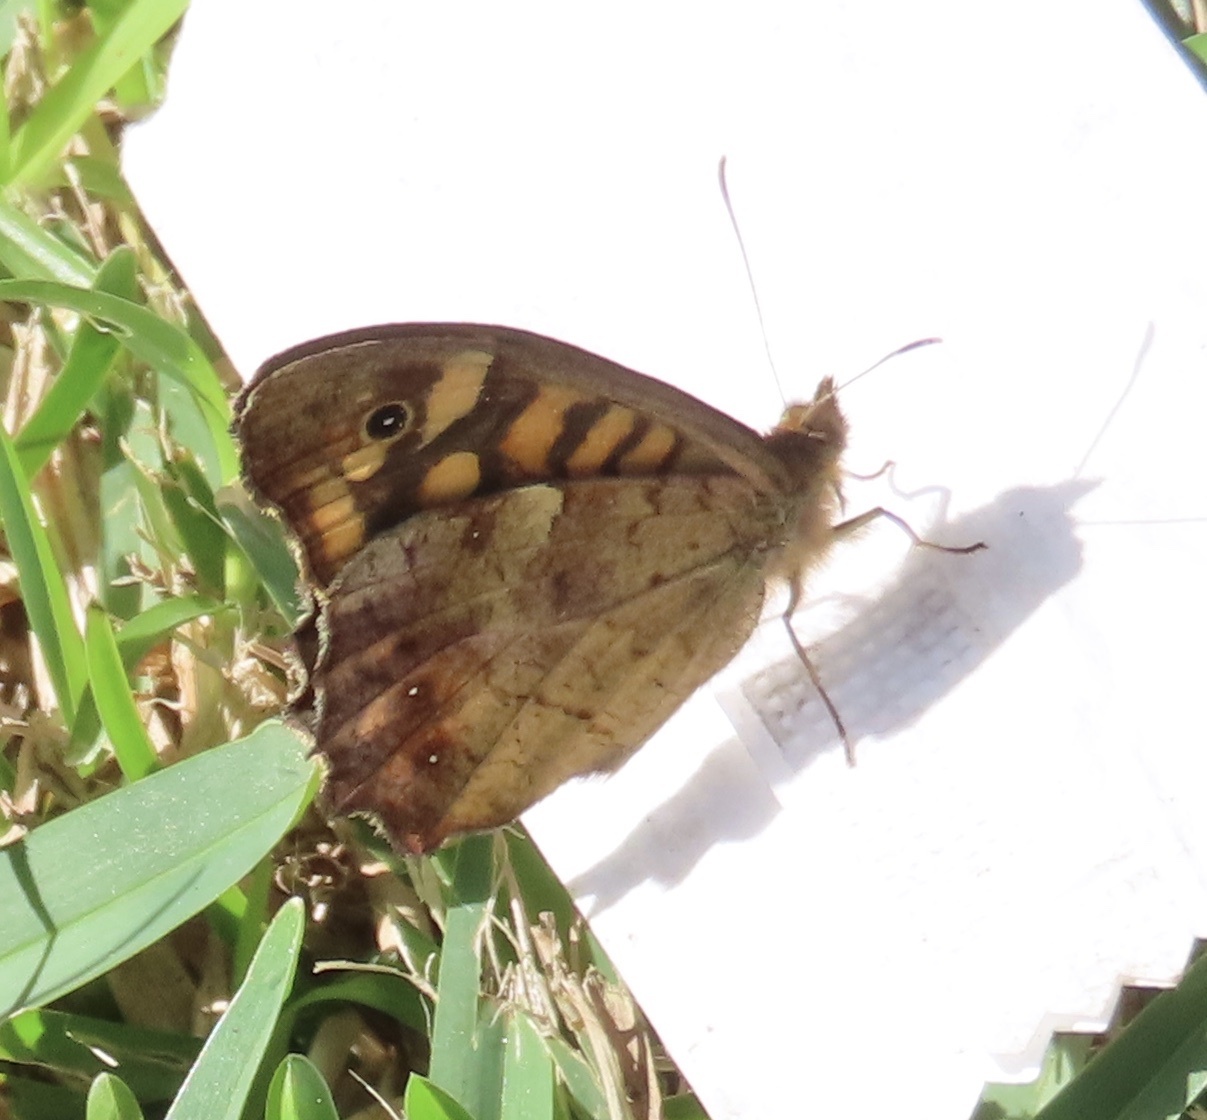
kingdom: Animalia
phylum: Arthropoda
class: Insecta
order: Lepidoptera
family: Nymphalidae
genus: Pararge
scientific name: Pararge aegeria
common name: Speckled wood
